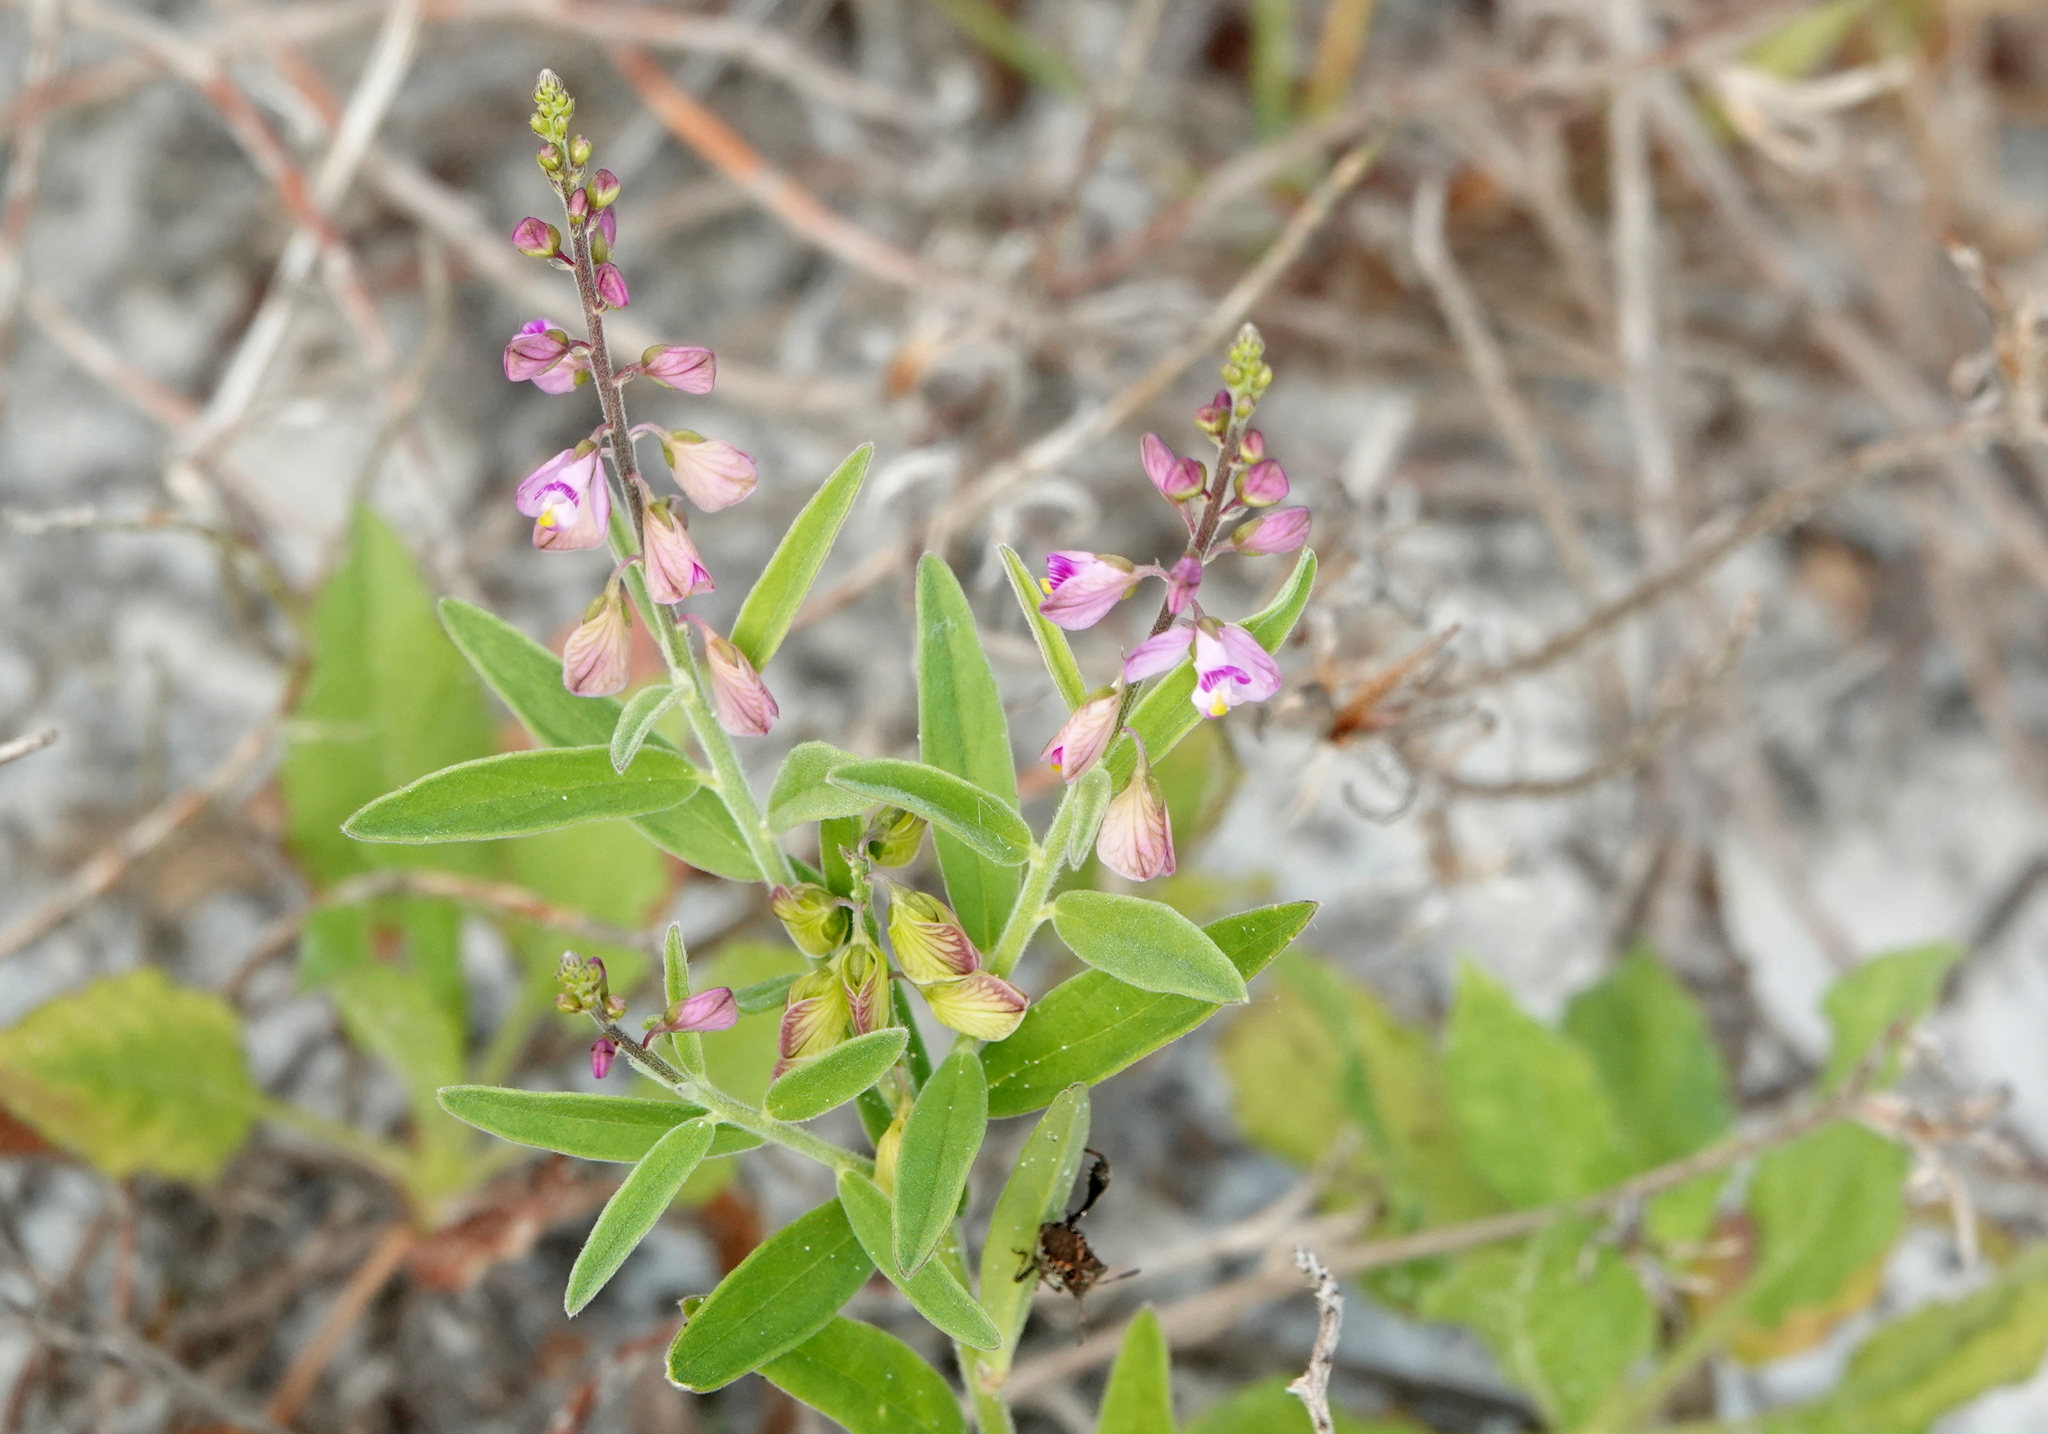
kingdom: Plantae
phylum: Tracheophyta
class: Magnoliopsida
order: Fabales
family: Polygalaceae
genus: Asemeia
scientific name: Asemeia grandiflora
